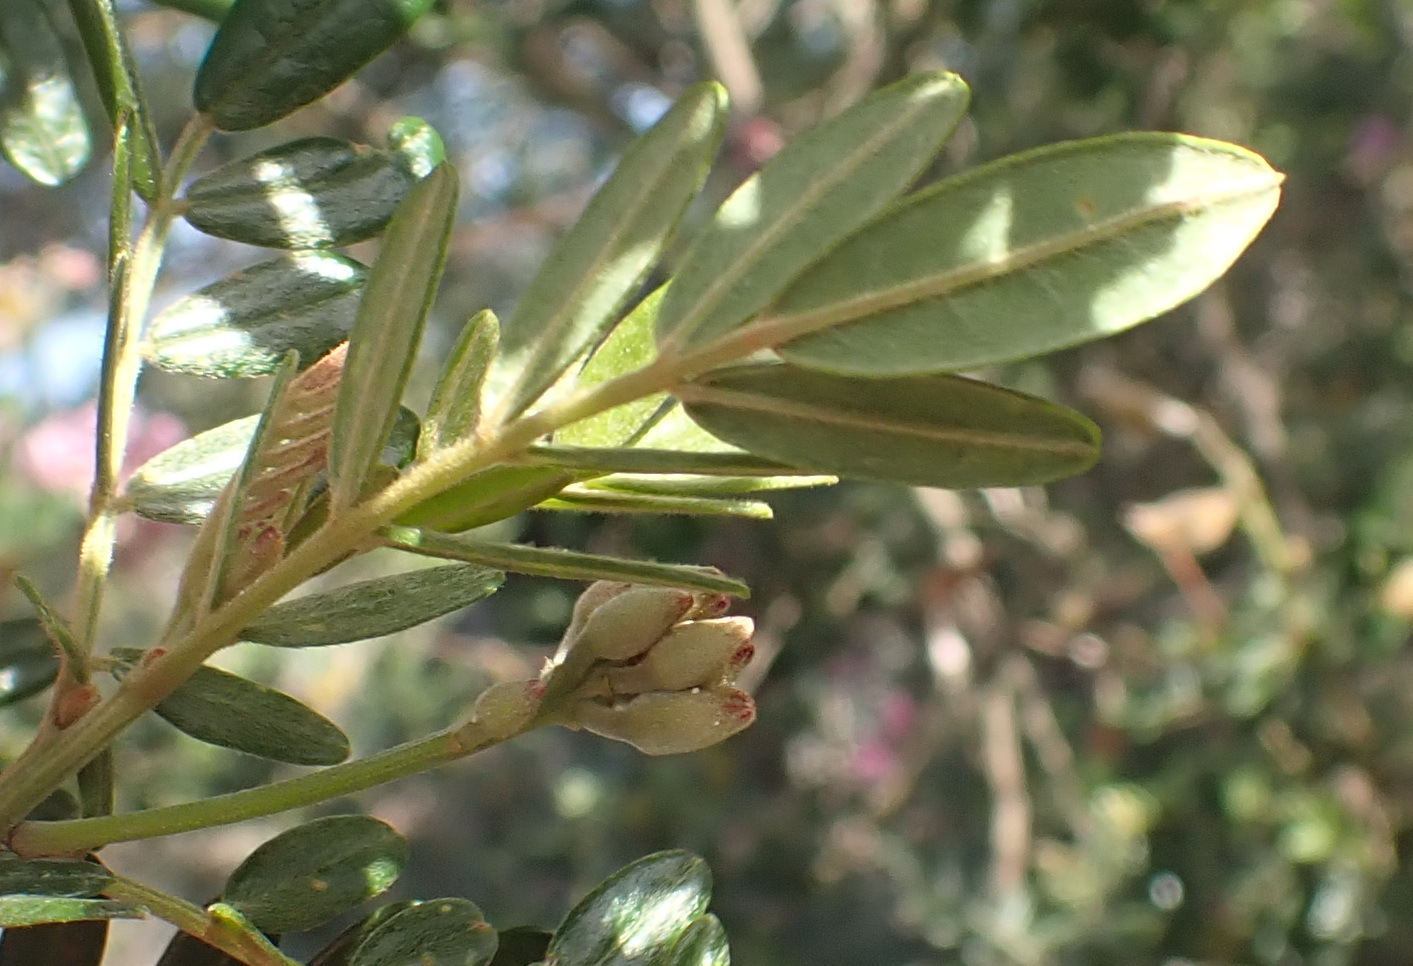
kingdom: Plantae
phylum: Tracheophyta
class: Magnoliopsida
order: Fabales
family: Fabaceae
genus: Virgilia
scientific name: Virgilia divaricata
